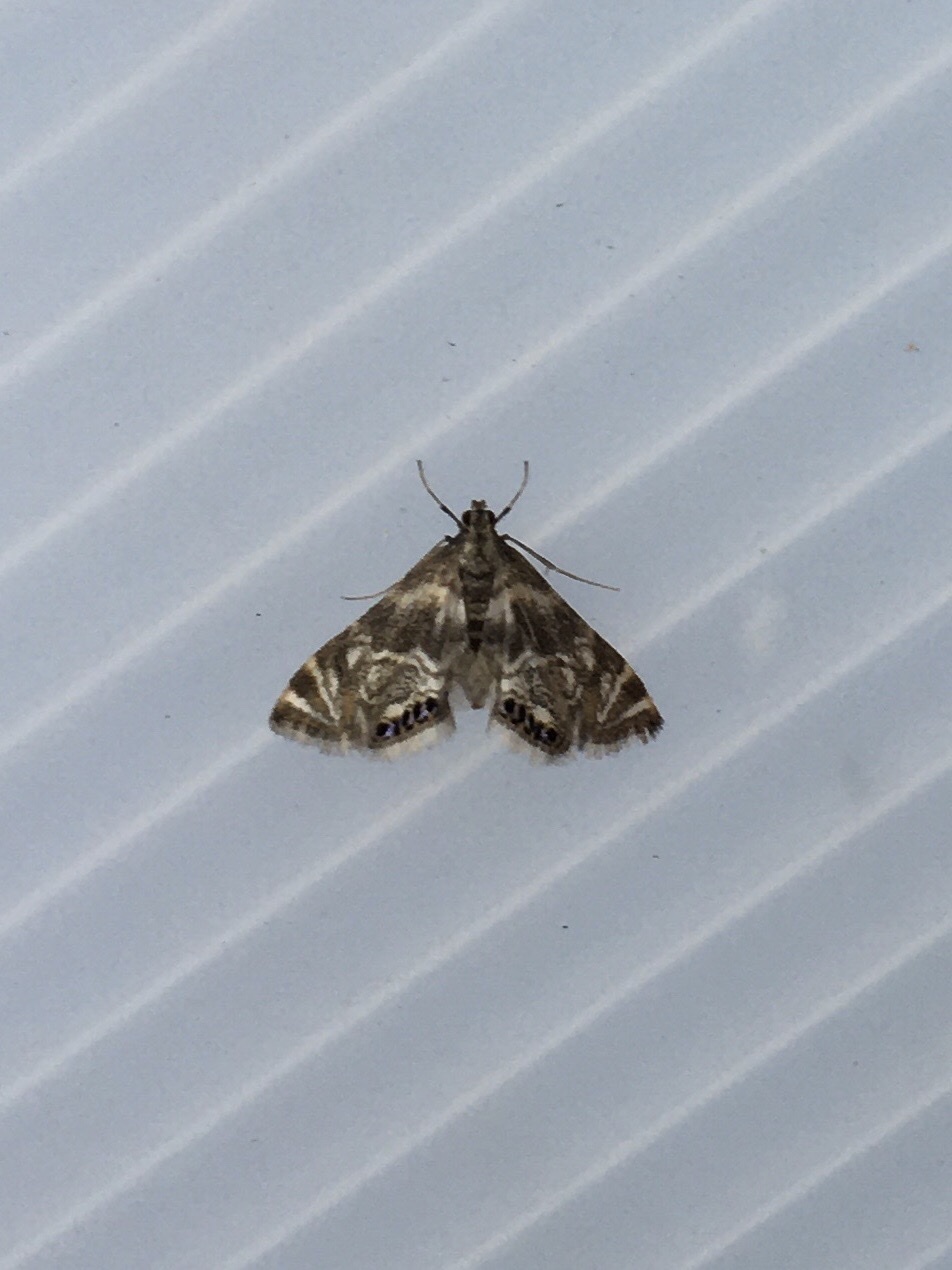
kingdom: Animalia
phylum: Arthropoda
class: Insecta
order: Lepidoptera
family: Crambidae
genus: Petrophila
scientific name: Petrophila canadensis
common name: Canadian petrophila
